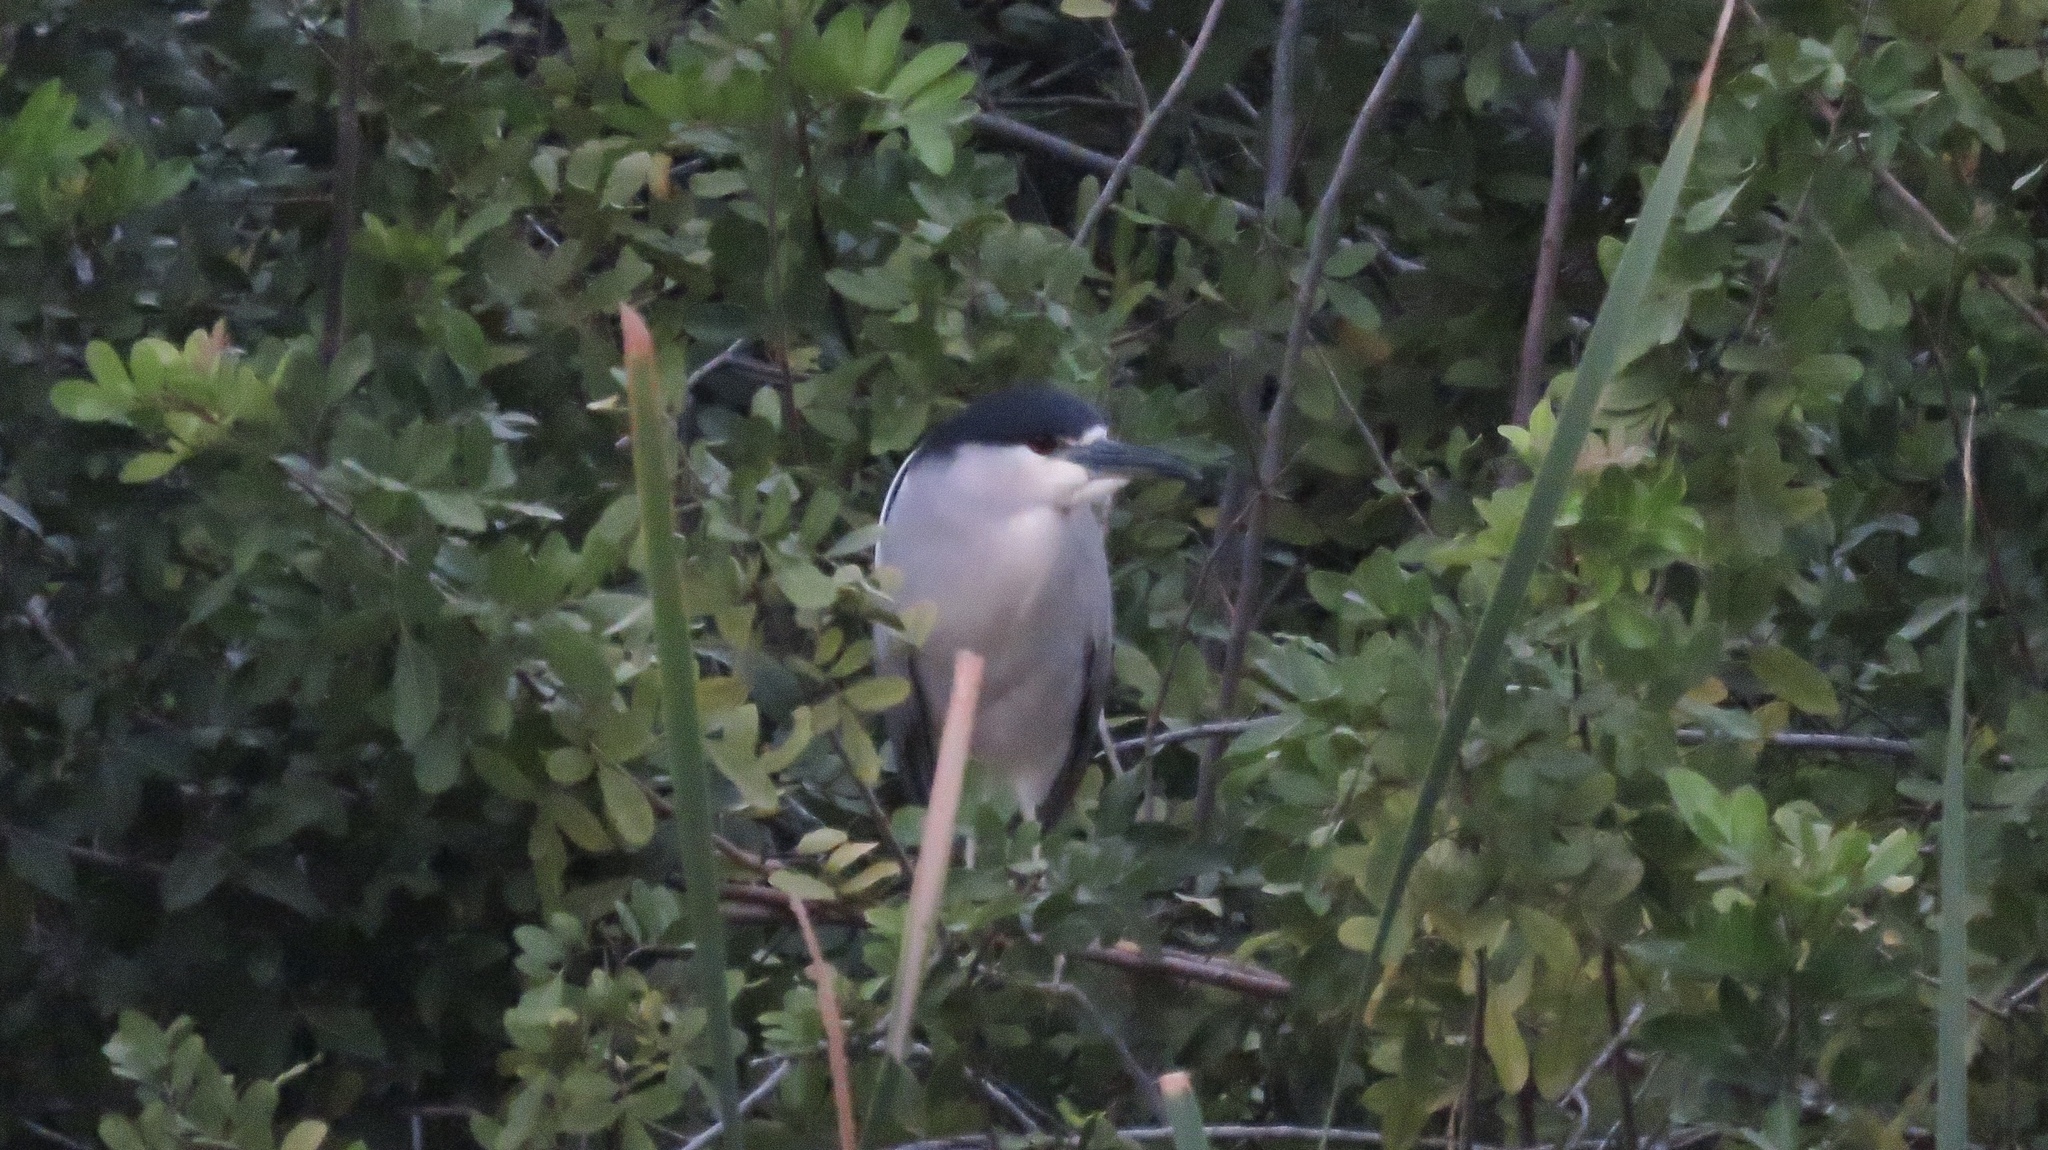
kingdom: Animalia
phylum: Chordata
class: Aves
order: Pelecaniformes
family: Ardeidae
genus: Nycticorax
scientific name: Nycticorax nycticorax
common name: Black-crowned night heron
